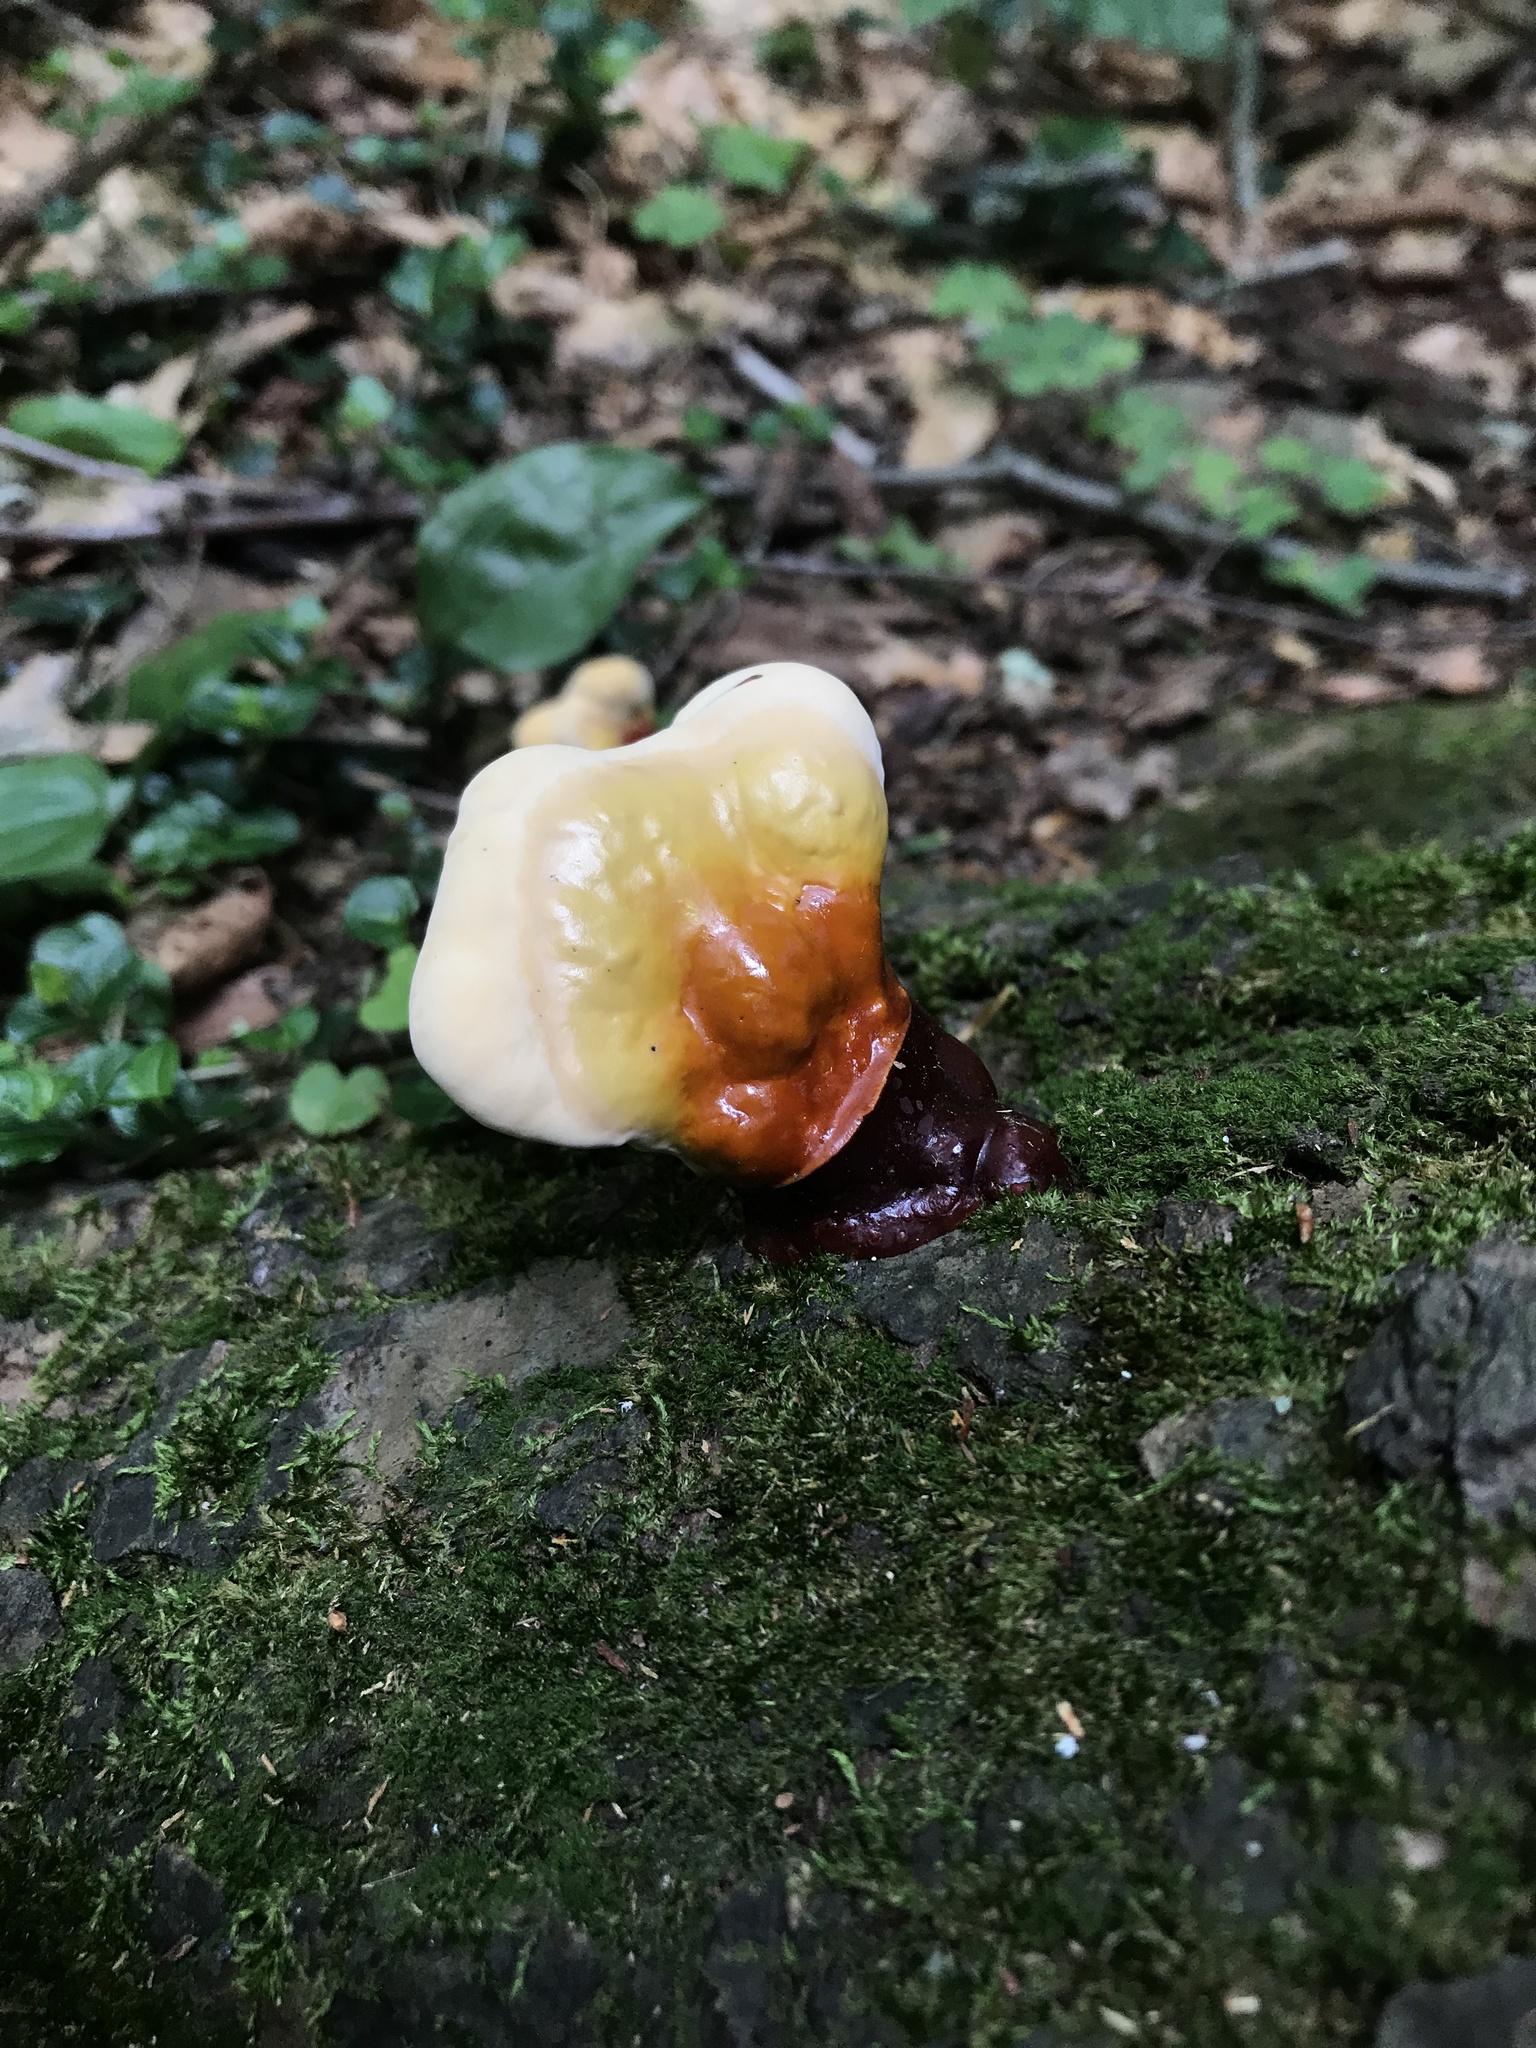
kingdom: Fungi
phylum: Basidiomycota
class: Agaricomycetes
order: Polyporales
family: Polyporaceae
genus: Ganoderma
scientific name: Ganoderma tsugae
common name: Hemlock varnish shelf
